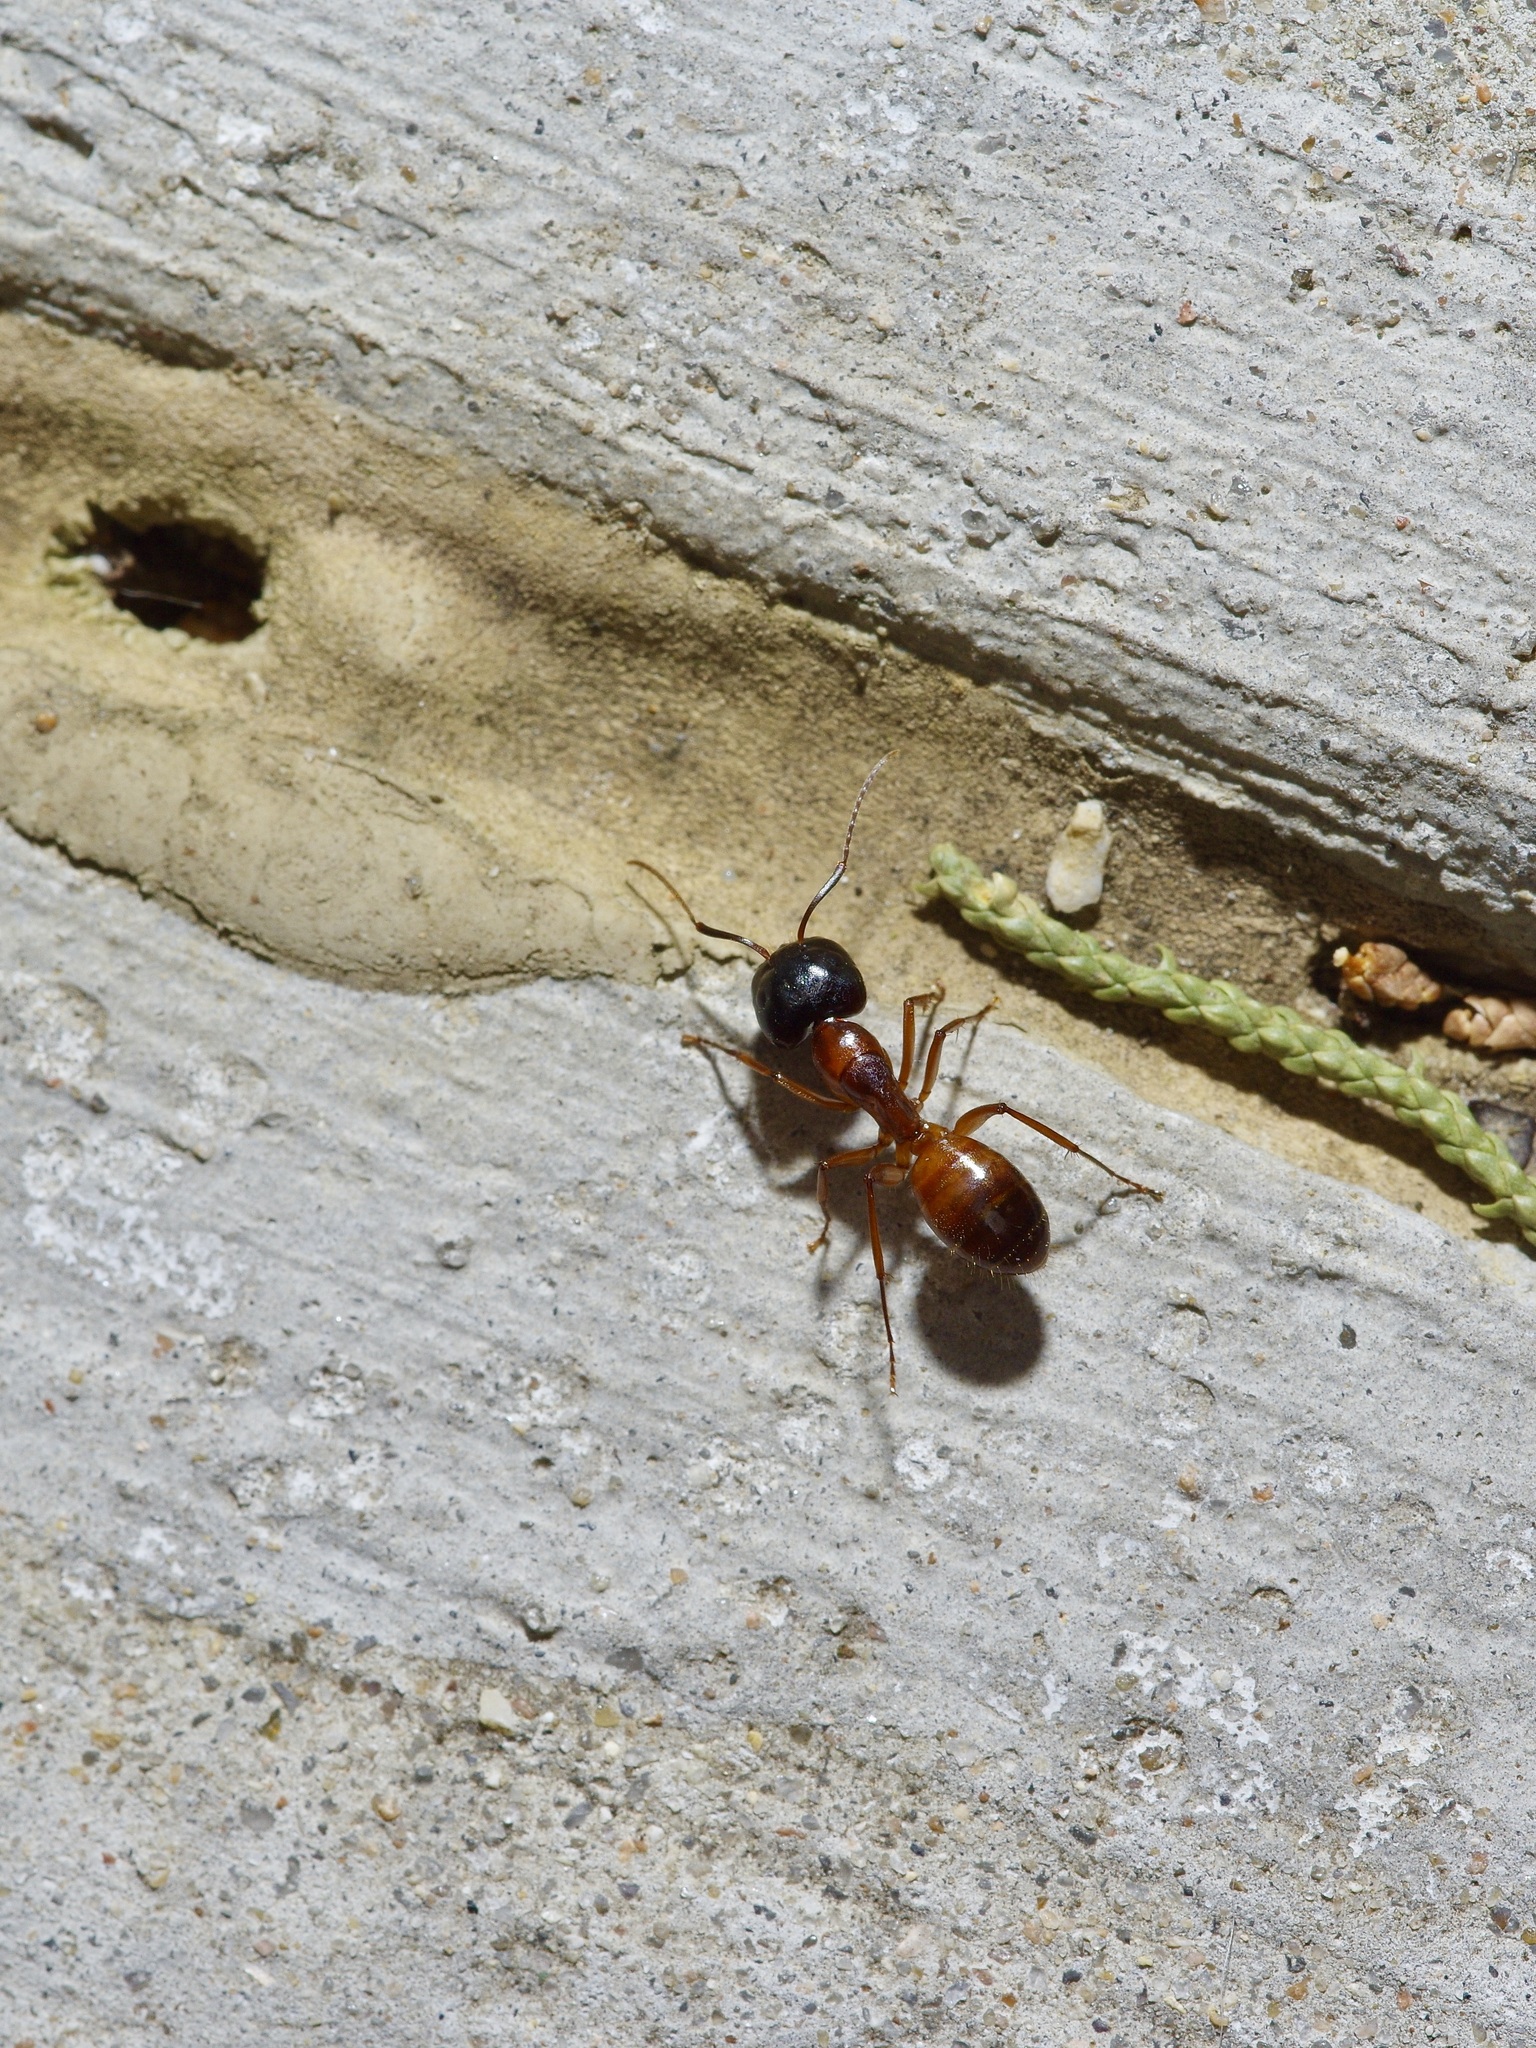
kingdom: Animalia
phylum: Arthropoda
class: Insecta
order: Hymenoptera
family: Formicidae
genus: Camponotus
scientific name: Camponotus sansabeanus
